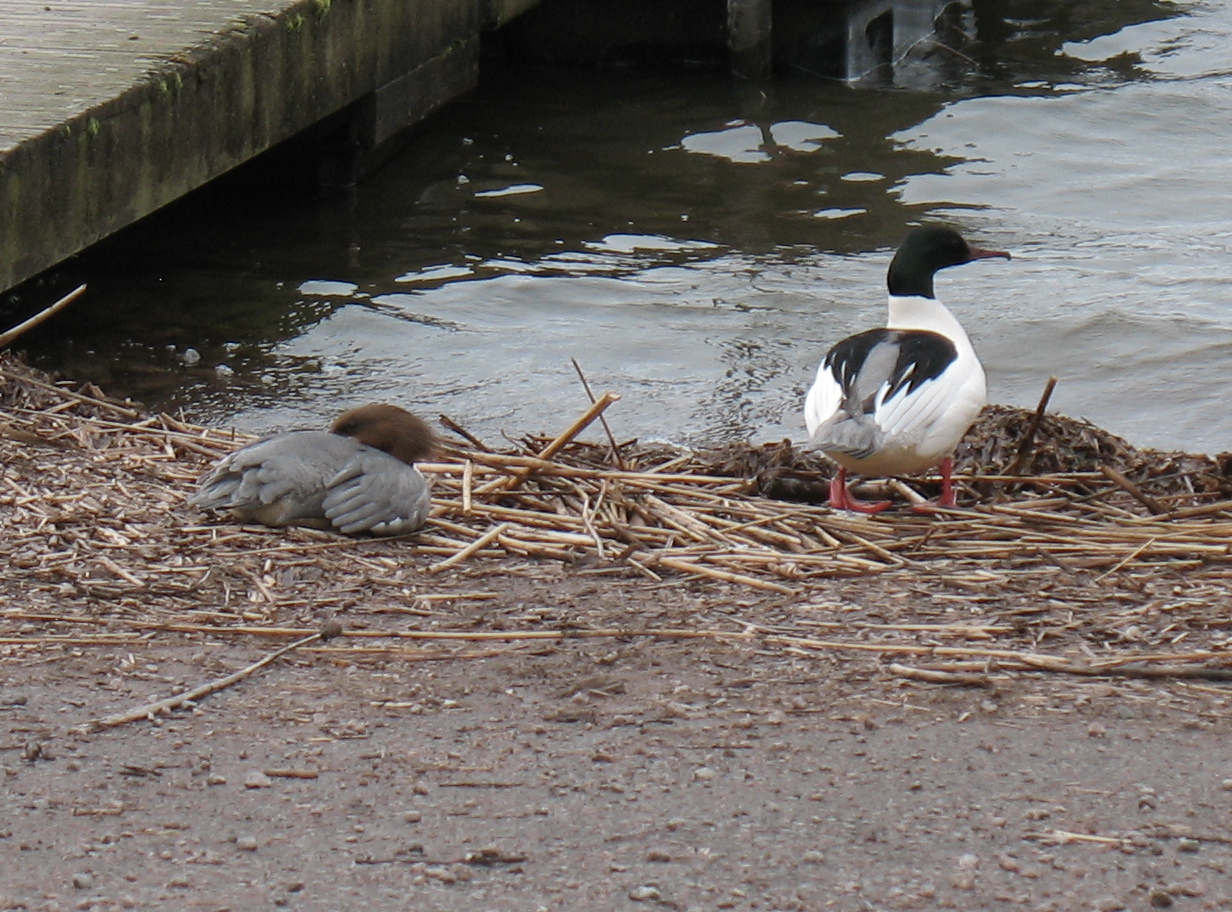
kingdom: Animalia
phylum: Chordata
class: Aves
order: Anseriformes
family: Anatidae
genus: Mergus
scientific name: Mergus merganser
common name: Common merganser
